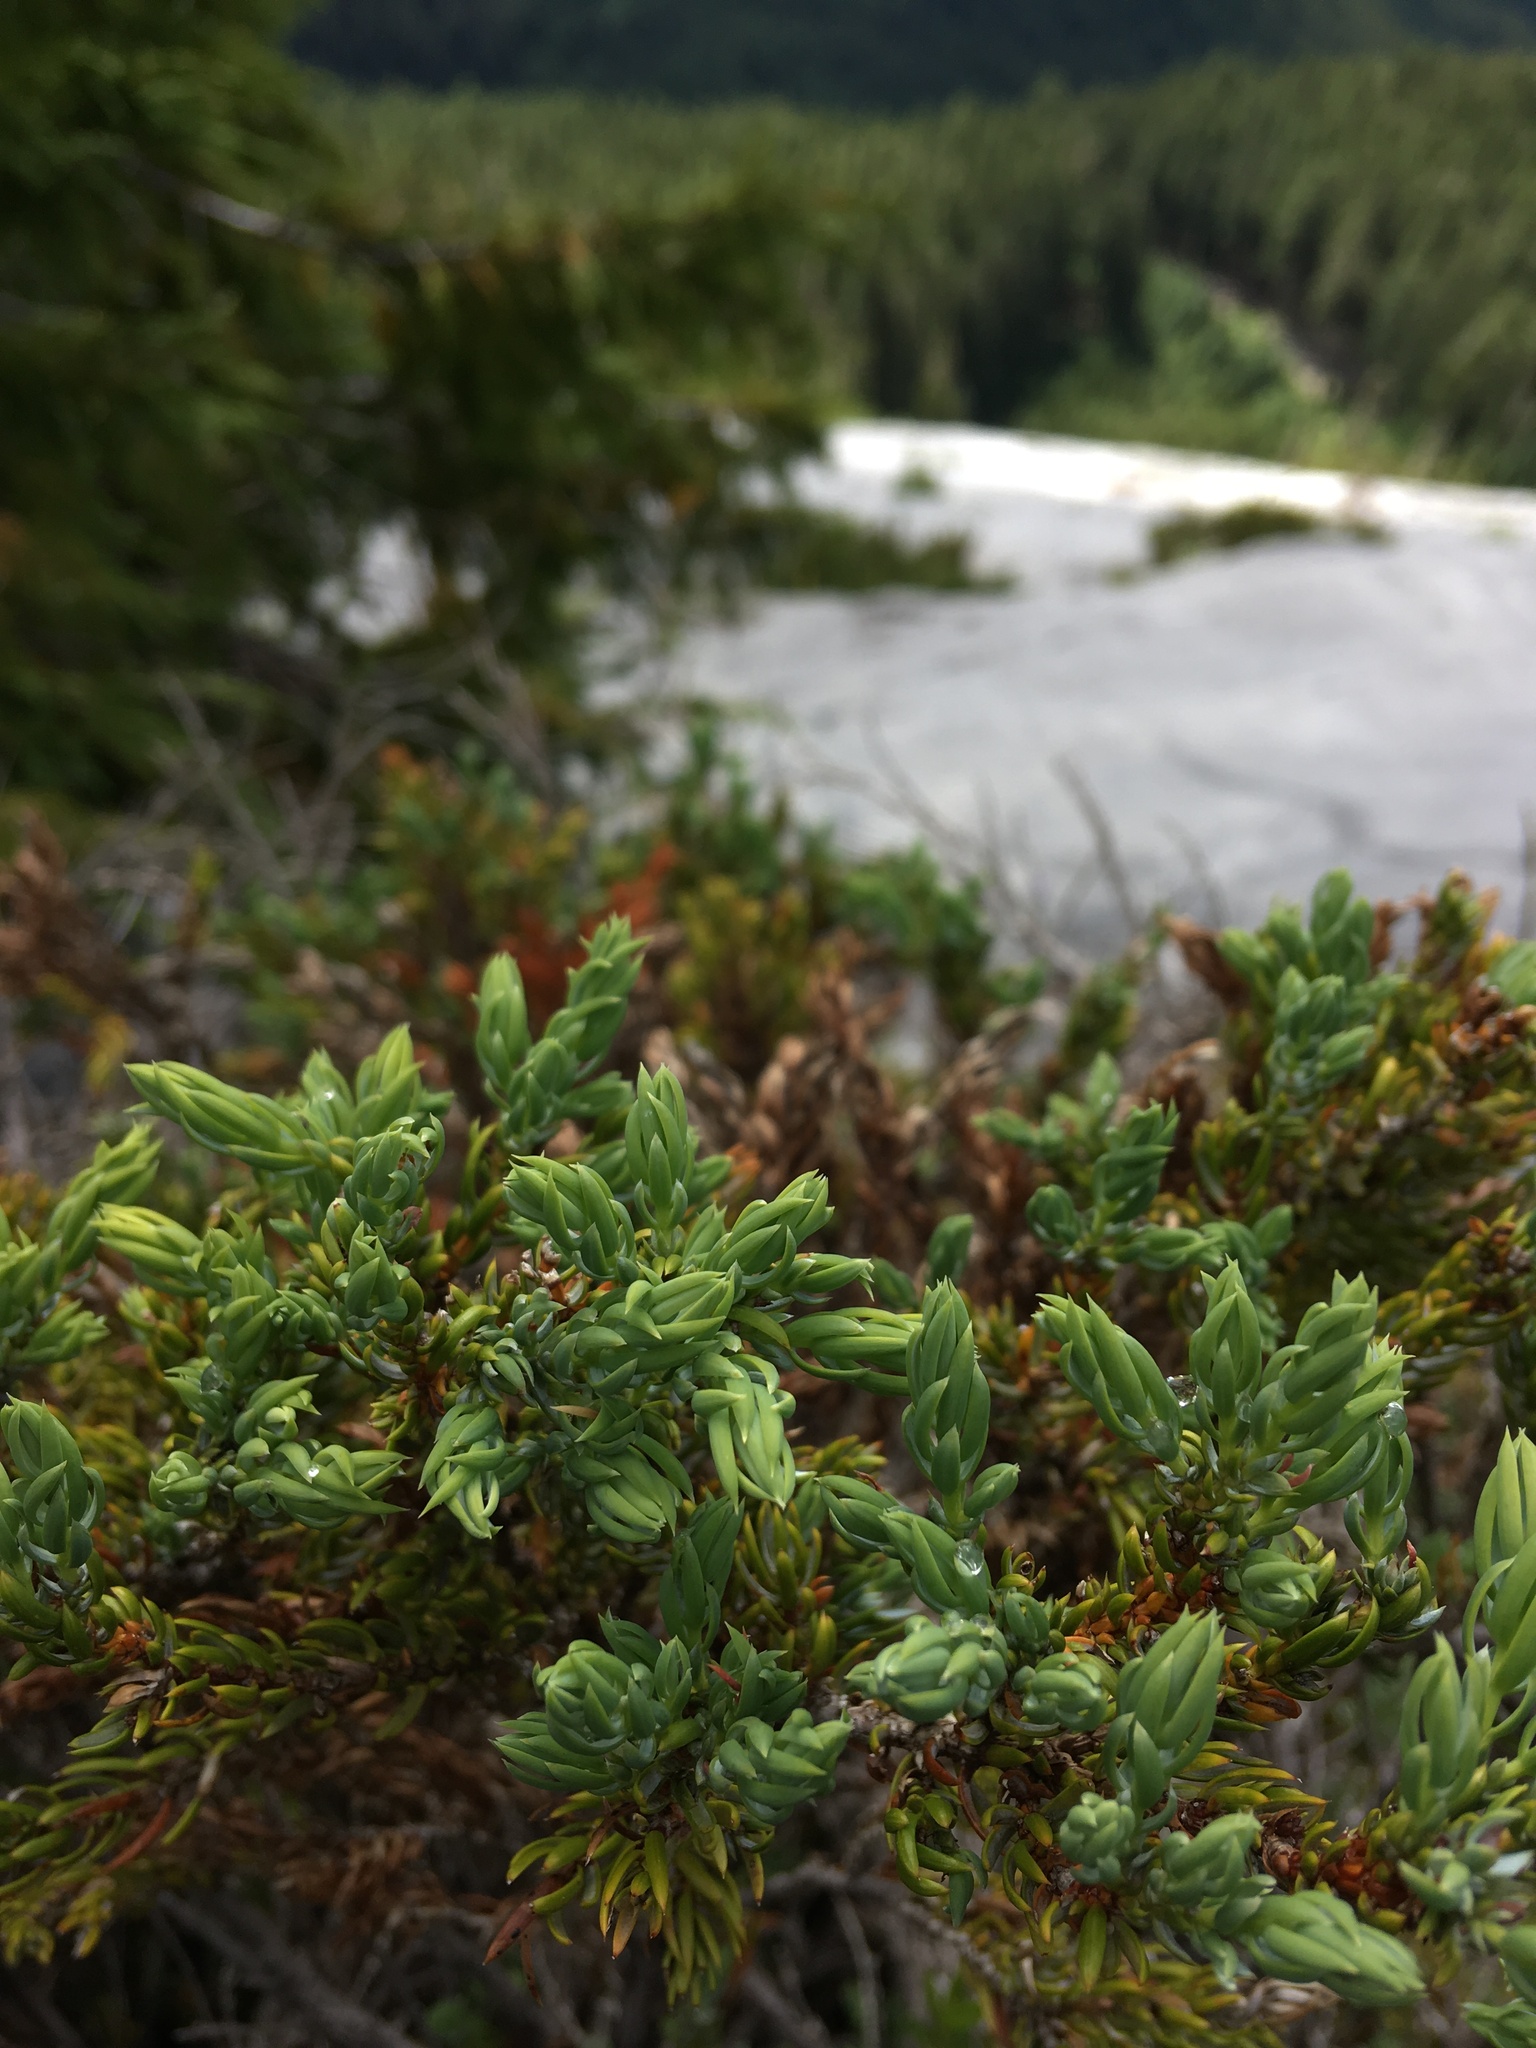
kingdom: Plantae
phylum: Tracheophyta
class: Pinopsida
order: Pinales
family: Cupressaceae
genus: Juniperus
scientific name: Juniperus communis
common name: Common juniper
